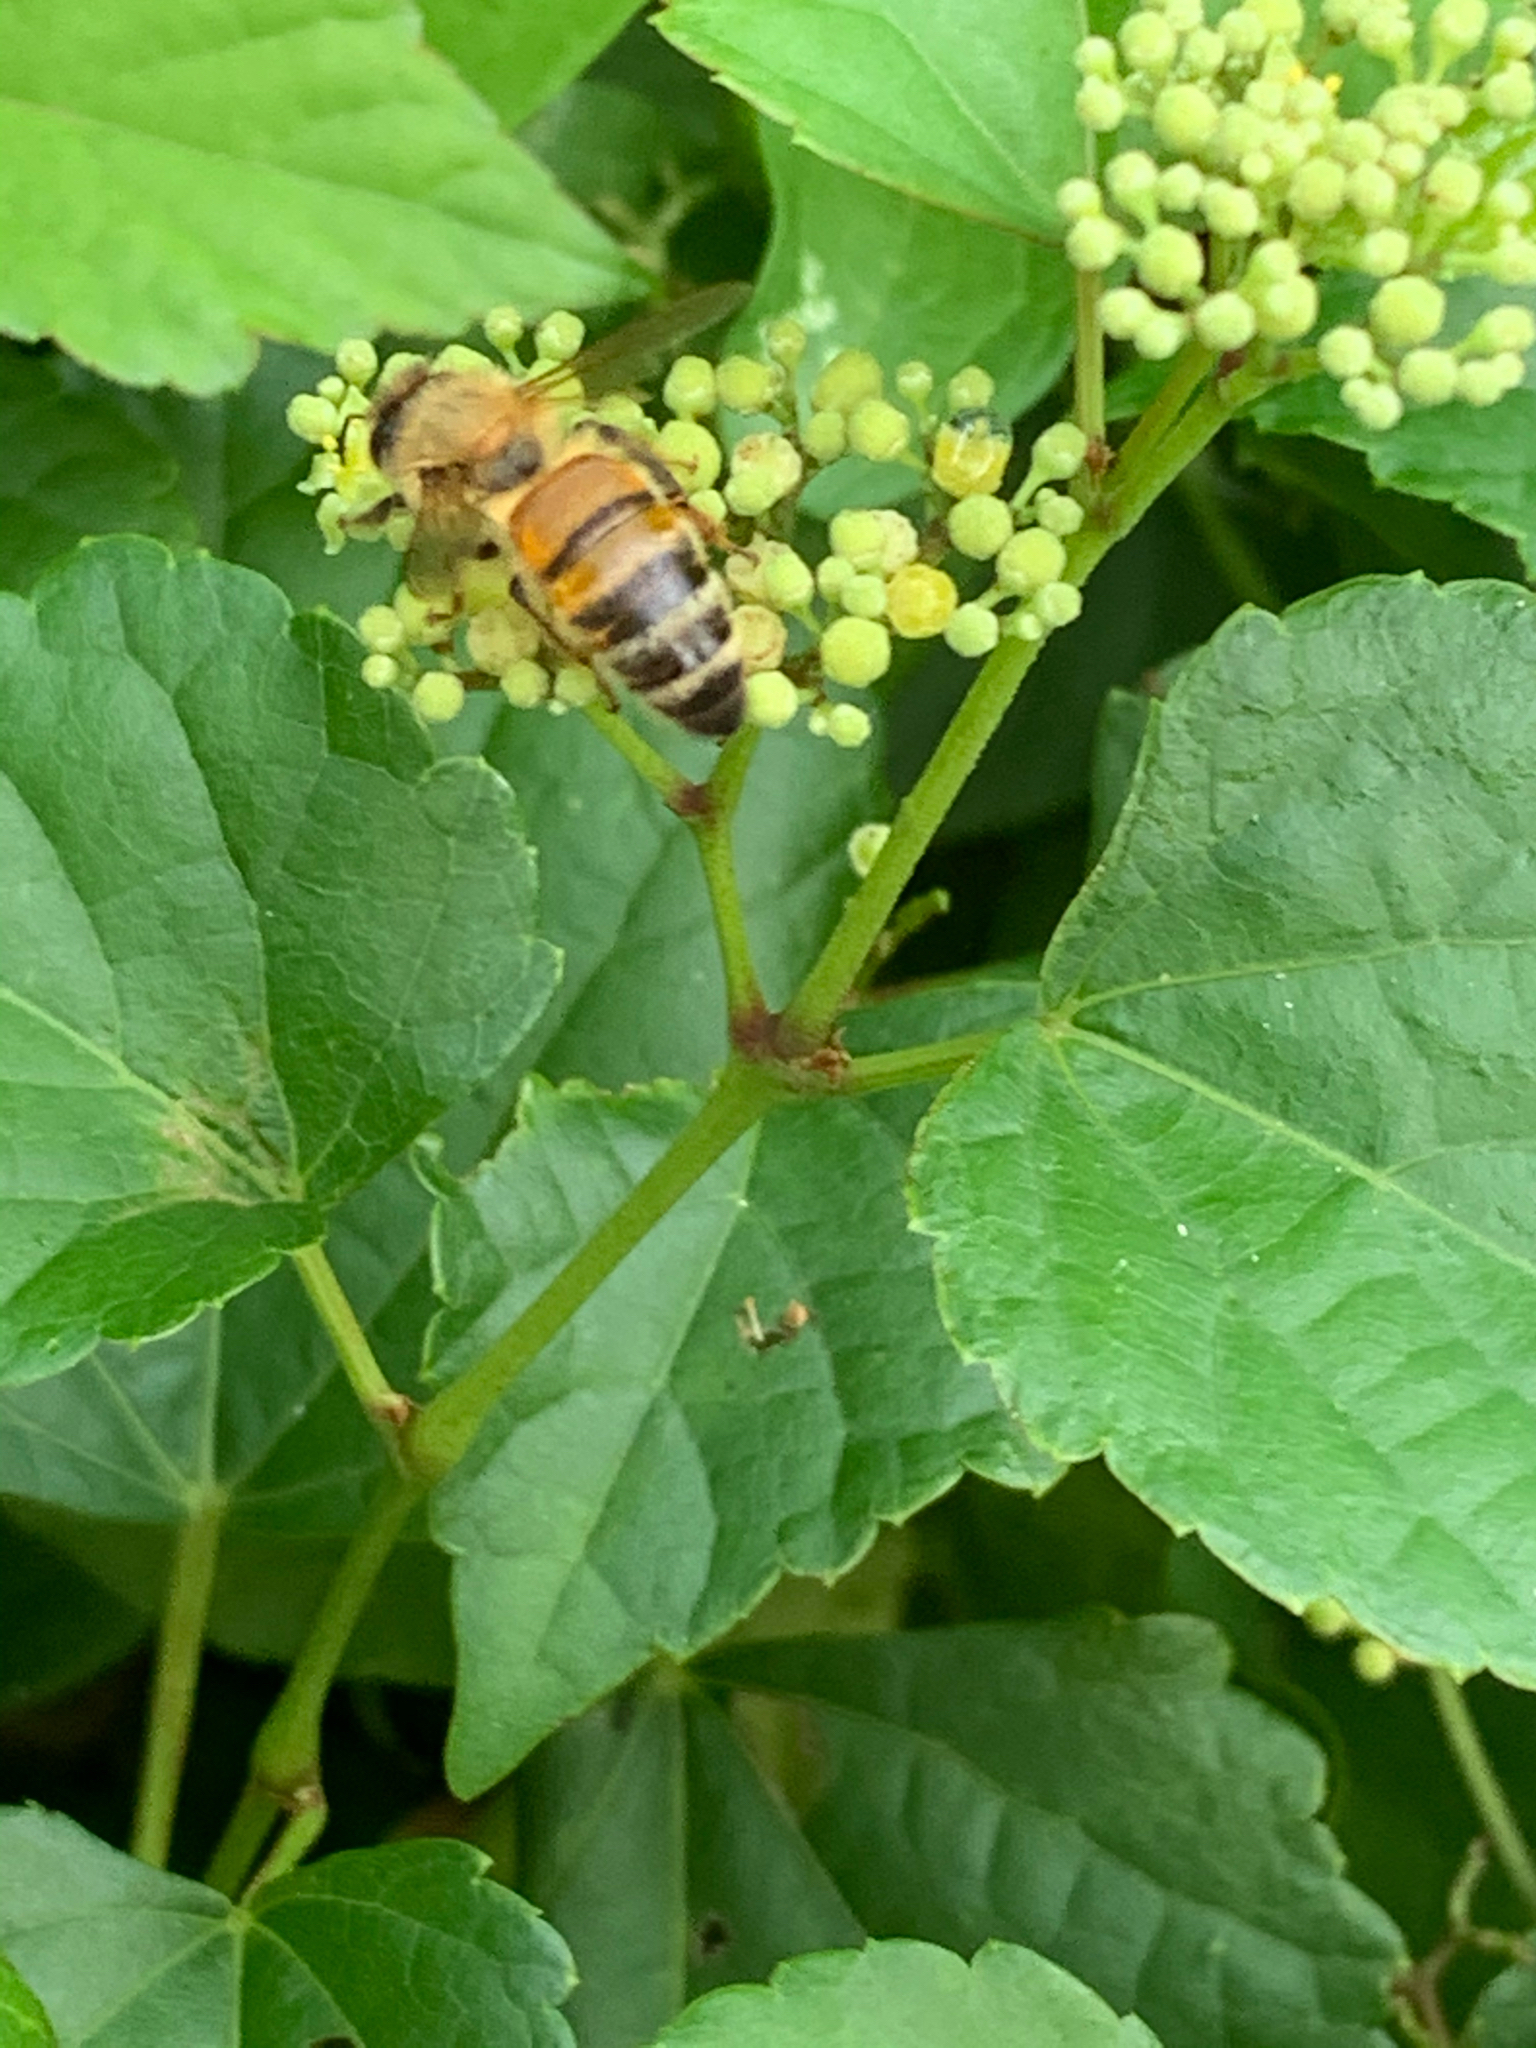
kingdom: Animalia
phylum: Arthropoda
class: Insecta
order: Hymenoptera
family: Apidae
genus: Apis
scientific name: Apis mellifera
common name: Honey bee
